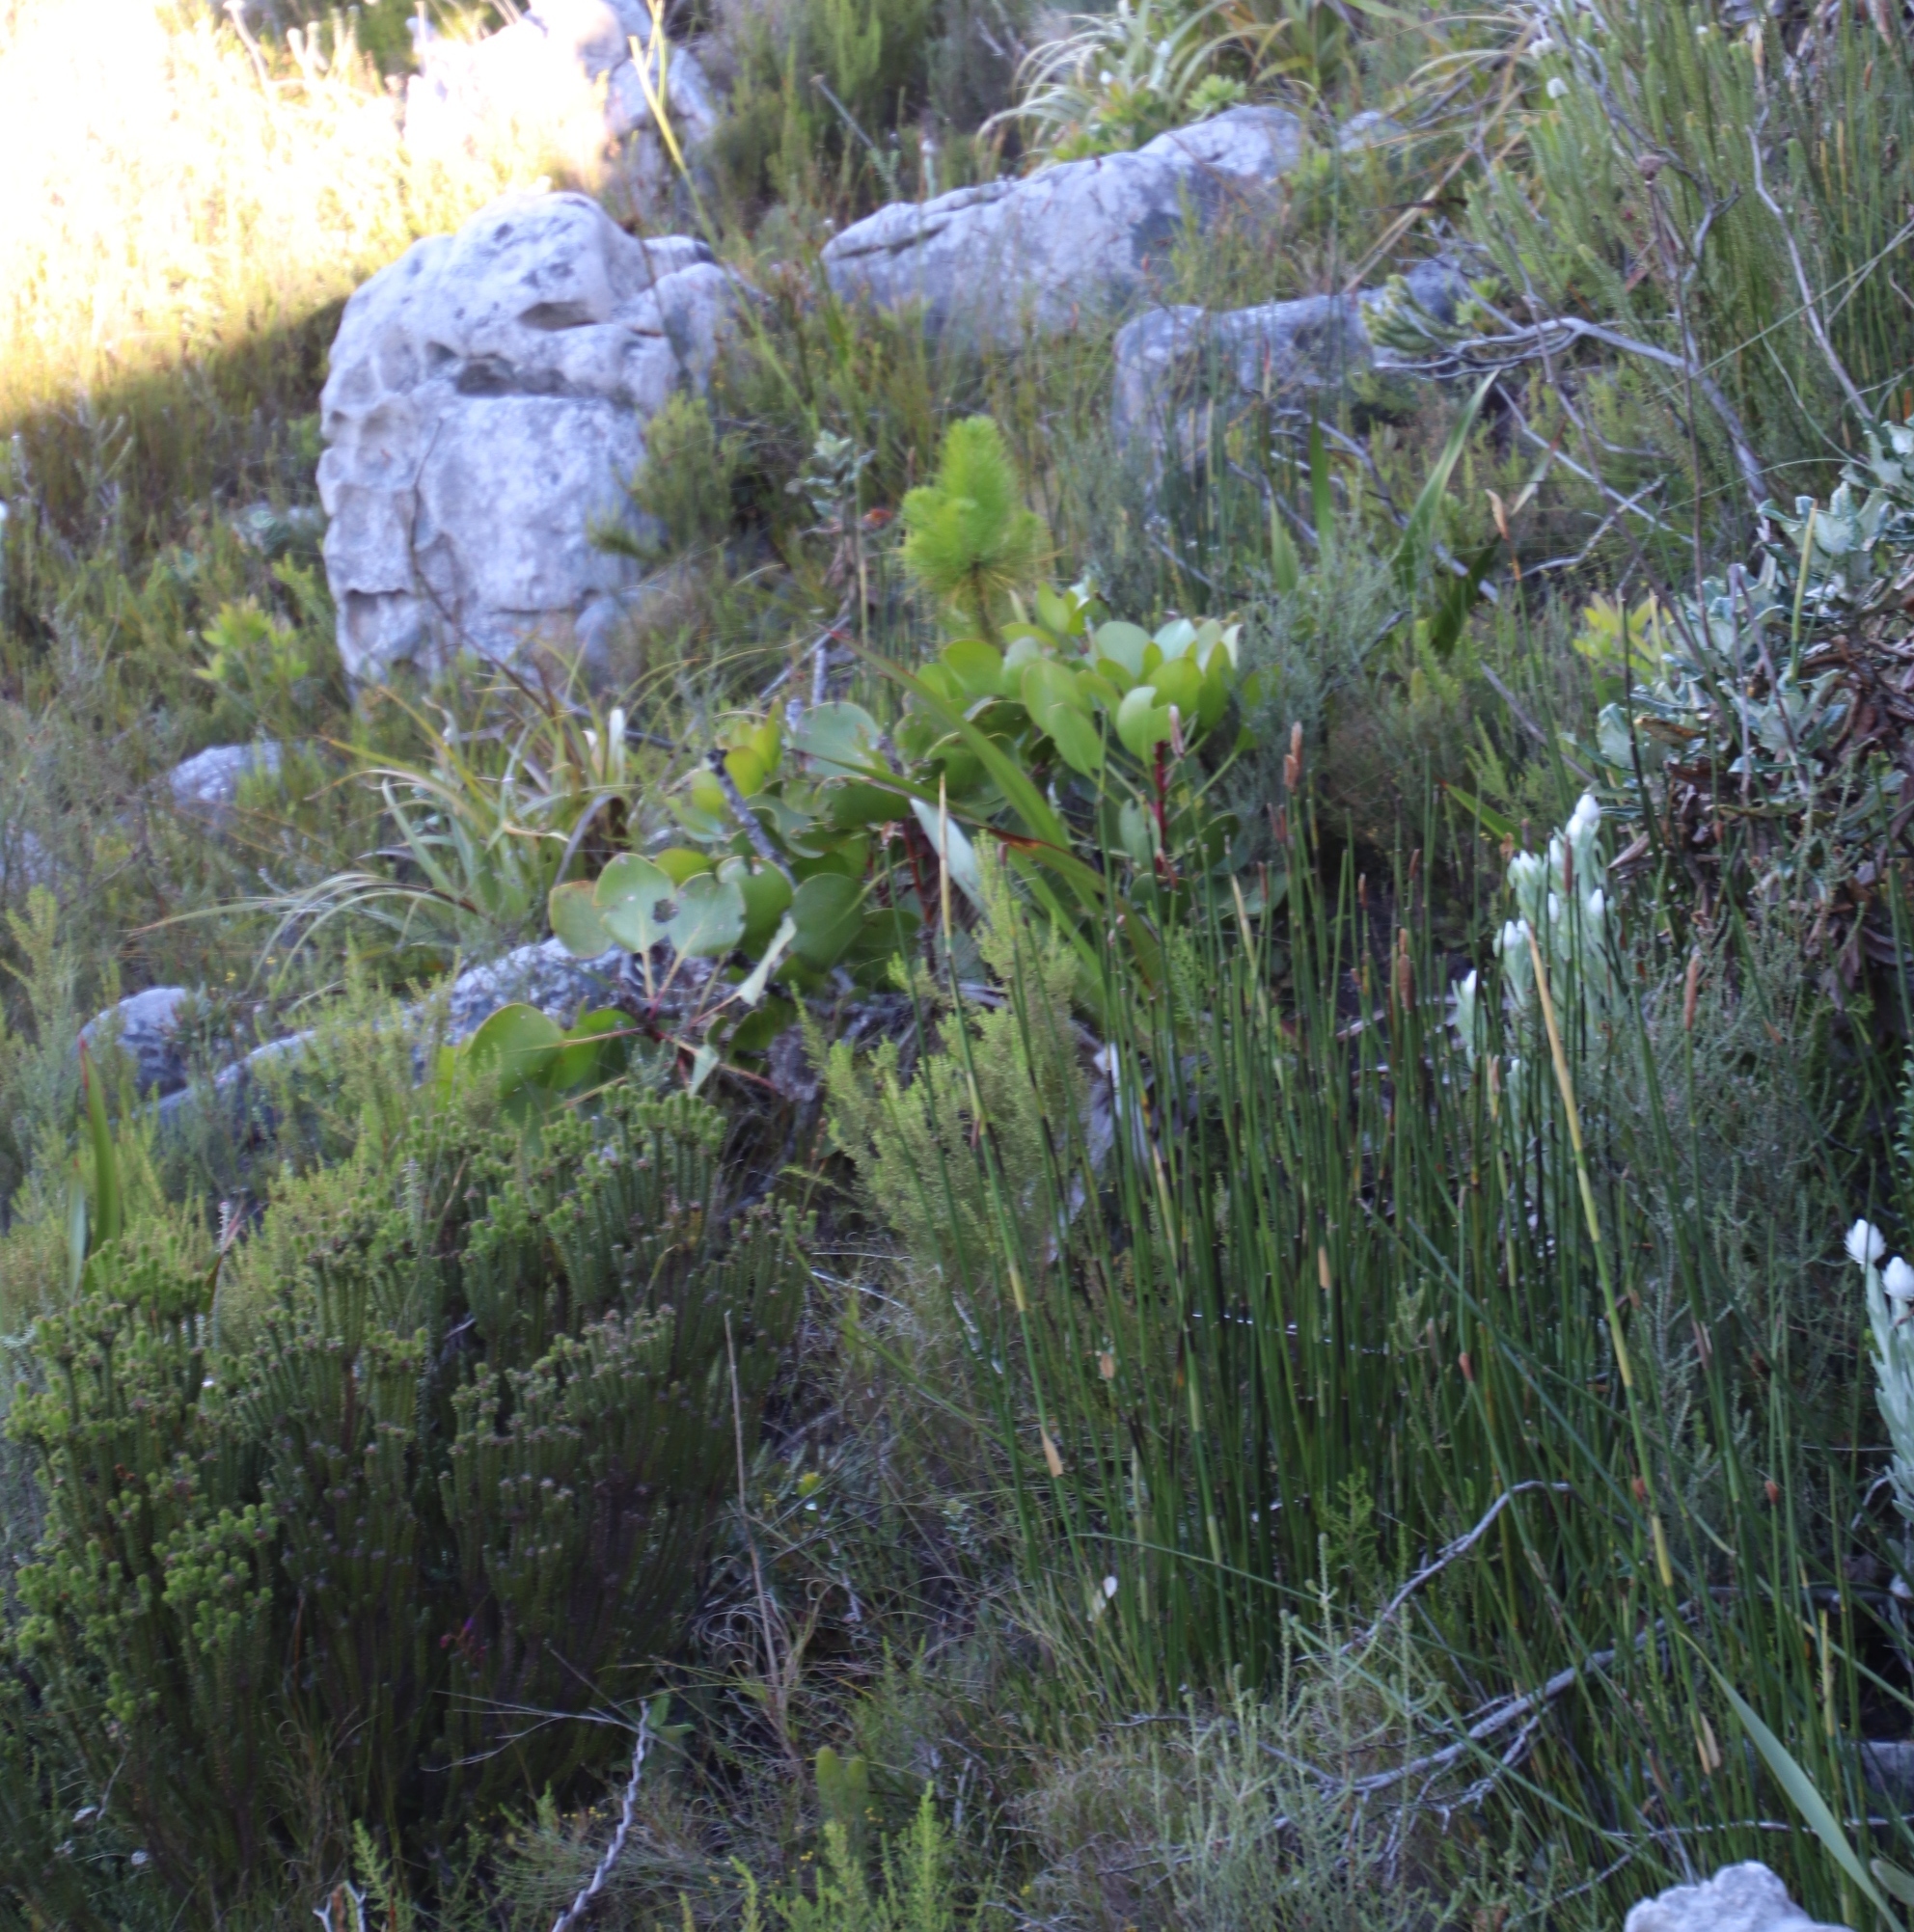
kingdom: Plantae
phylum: Tracheophyta
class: Magnoliopsida
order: Proteales
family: Proteaceae
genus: Protea
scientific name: Protea cynaroides
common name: King protea
